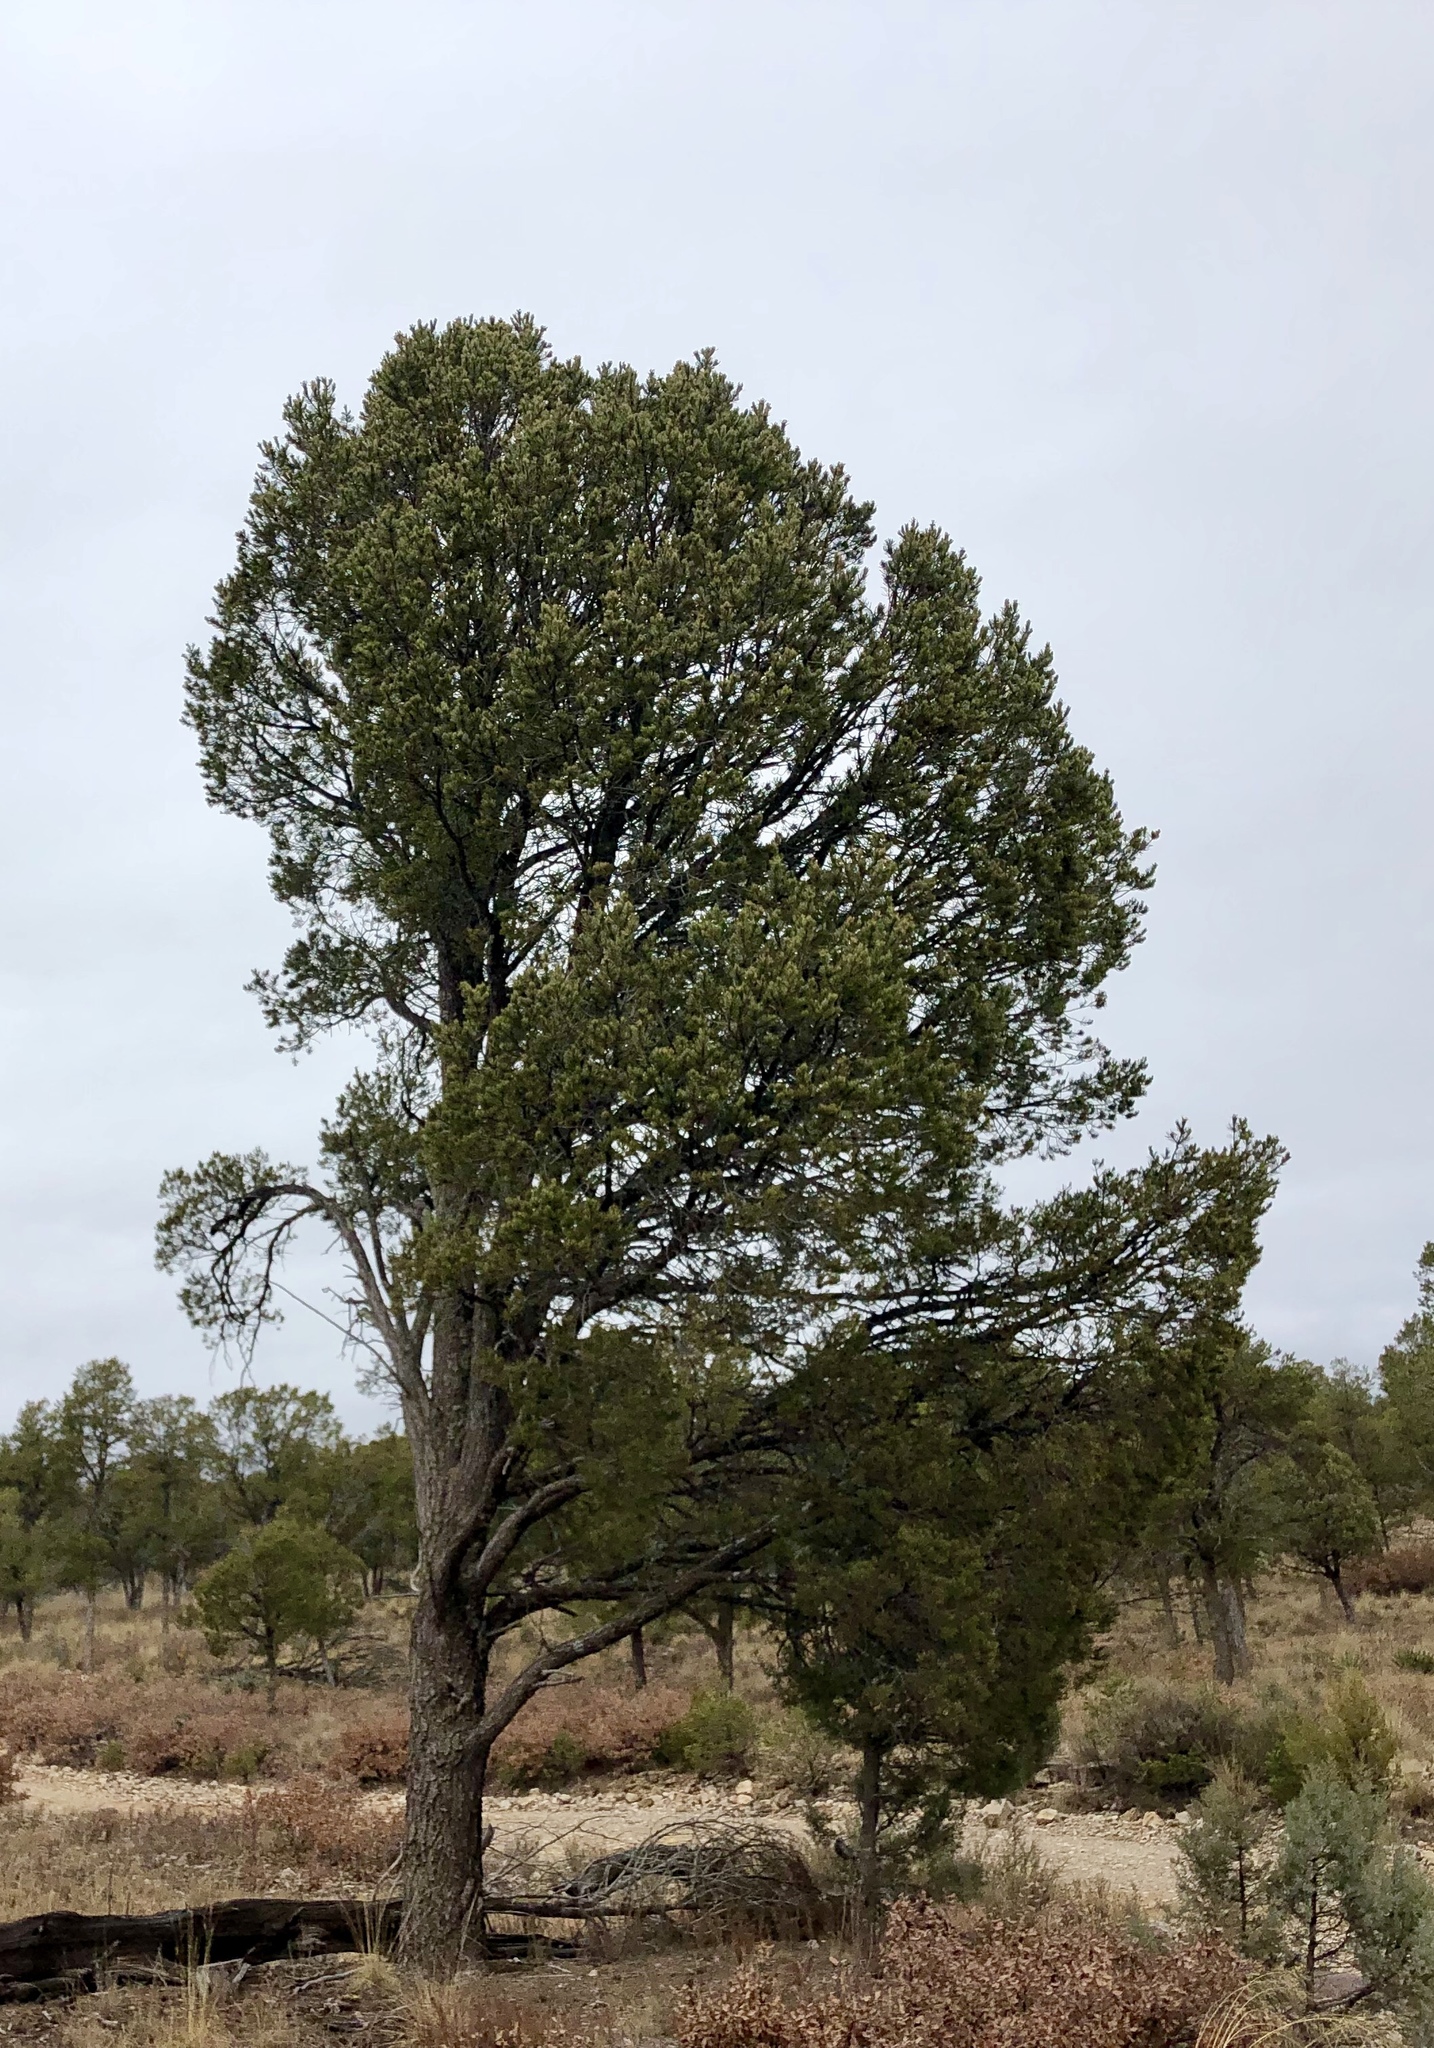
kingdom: Plantae
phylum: Tracheophyta
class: Pinopsida
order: Pinales
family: Cupressaceae
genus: Juniperus
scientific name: Juniperus deppeana
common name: Alligator juniper
